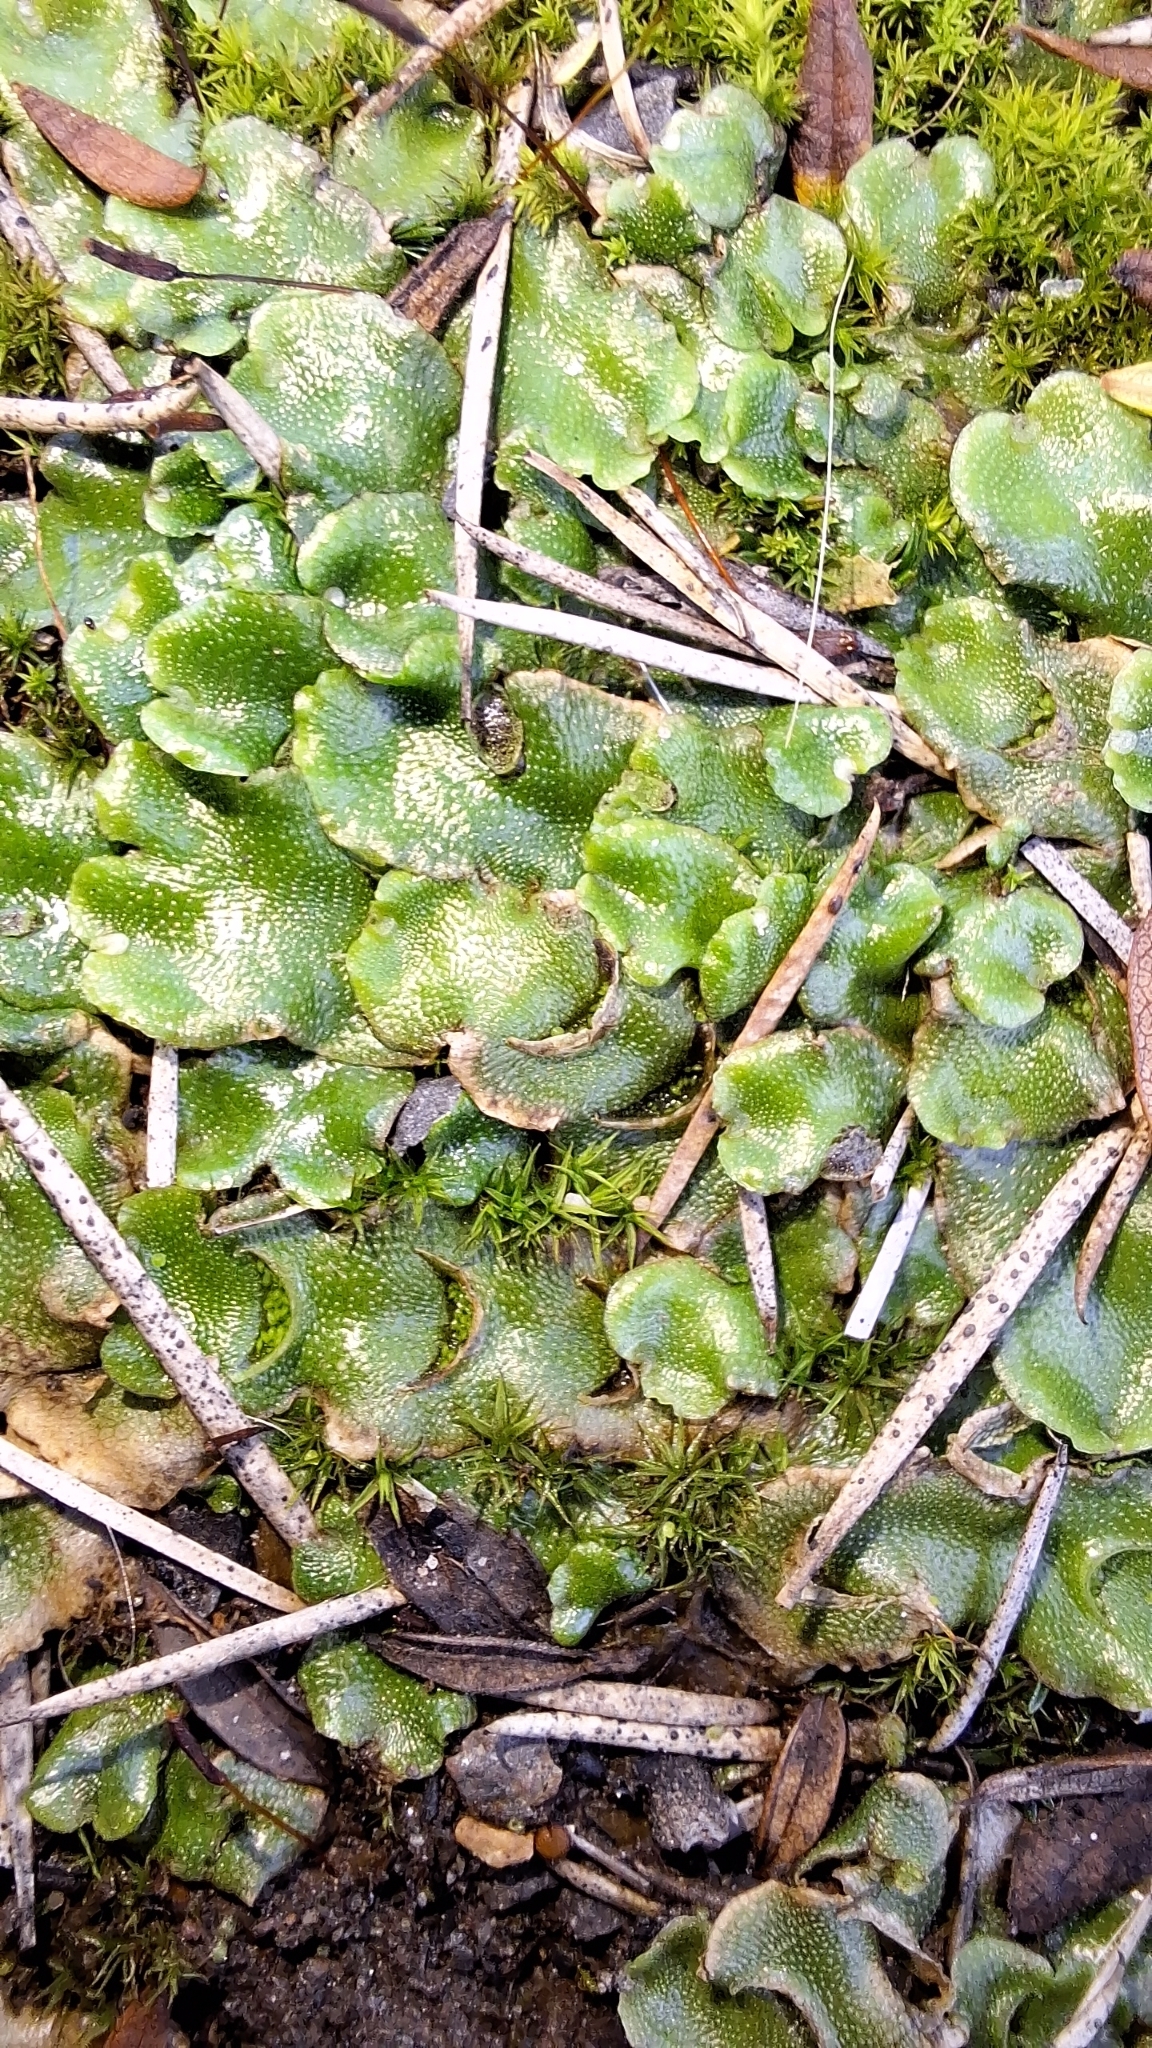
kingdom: Plantae
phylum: Marchantiophyta
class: Marchantiopsida
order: Lunulariales
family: Lunulariaceae
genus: Lunularia
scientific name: Lunularia cruciata
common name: Crescent-cup liverwort
